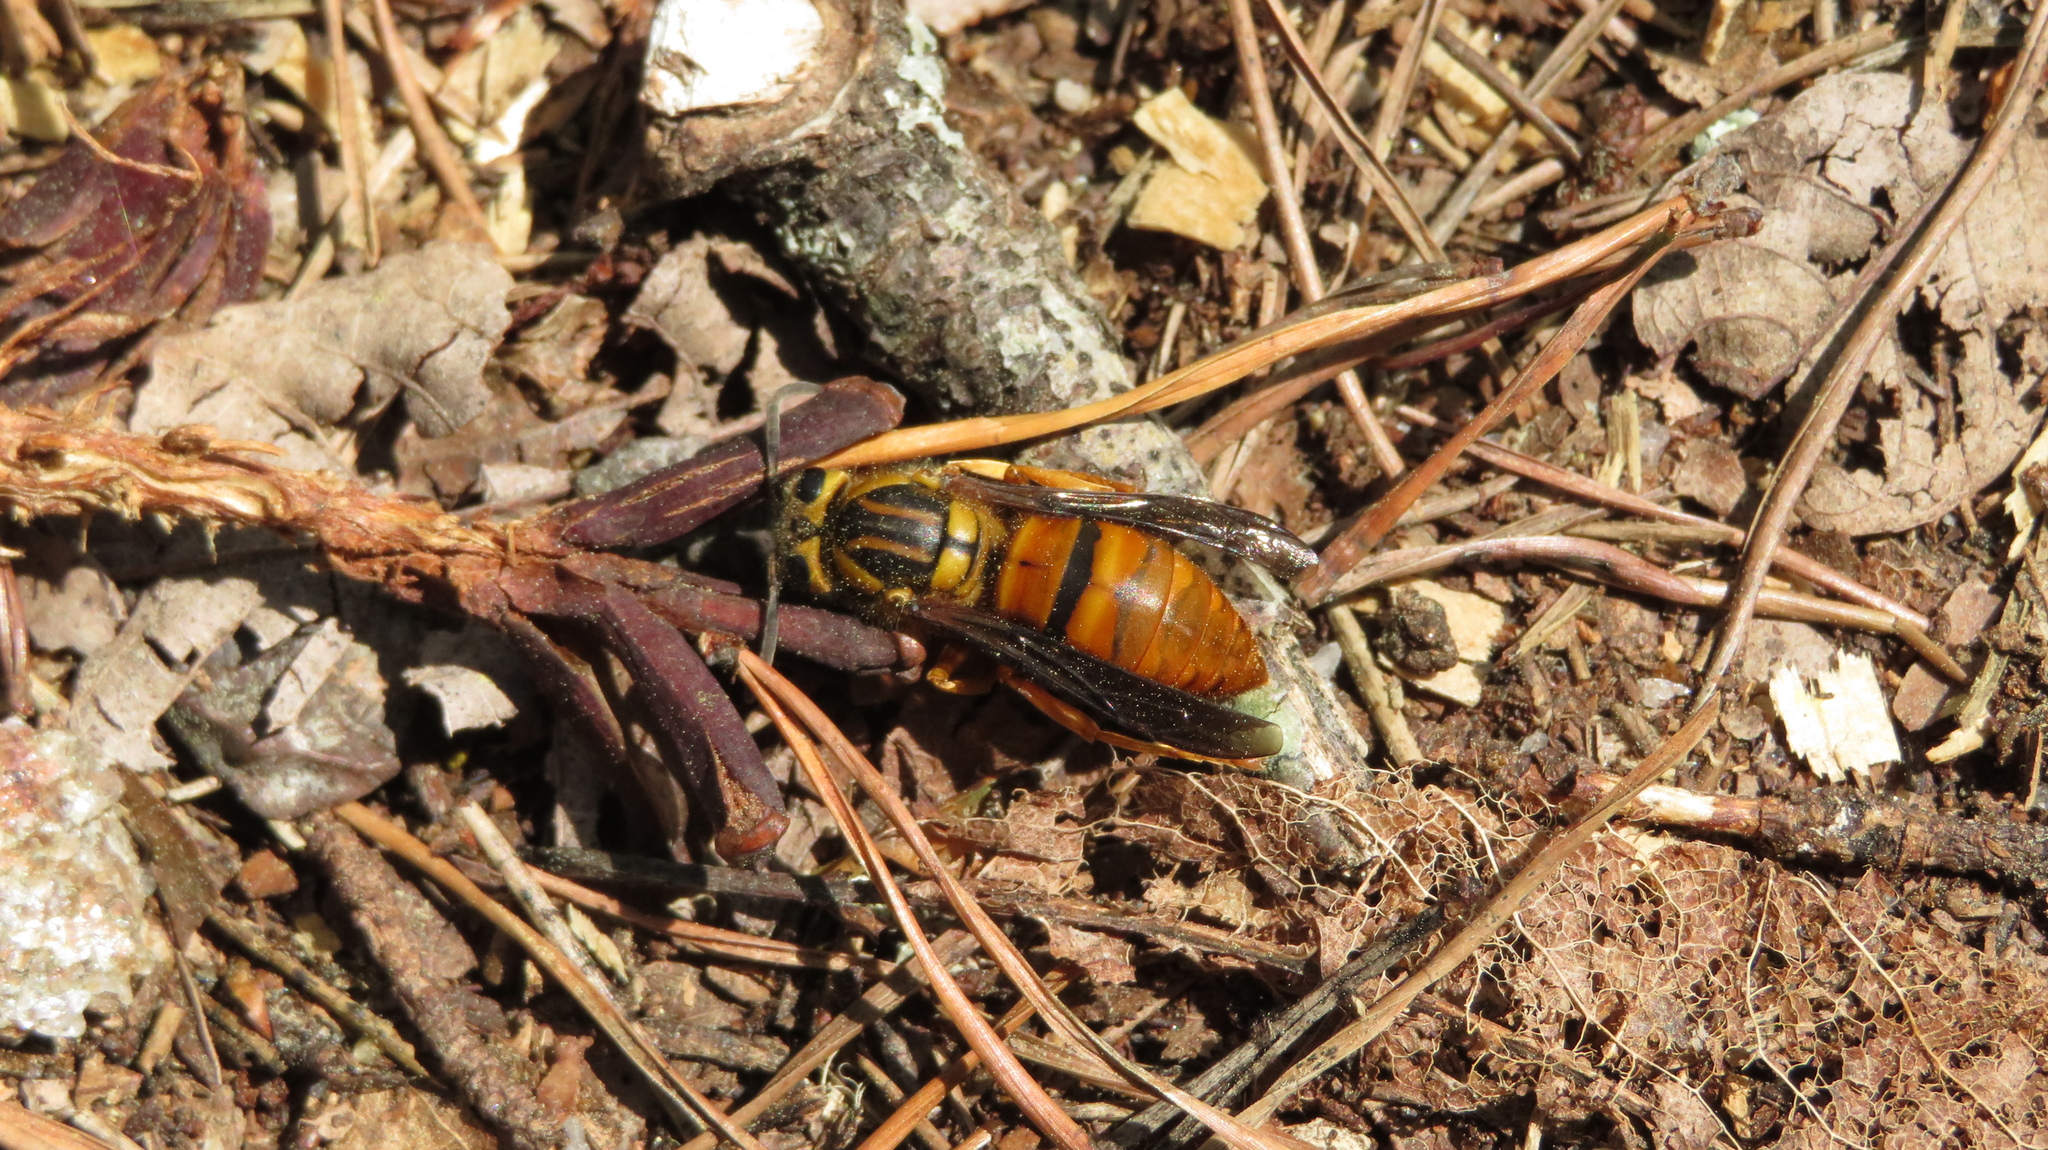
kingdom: Animalia
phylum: Arthropoda
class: Insecta
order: Hymenoptera
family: Vespidae
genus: Vespula
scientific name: Vespula squamosa
